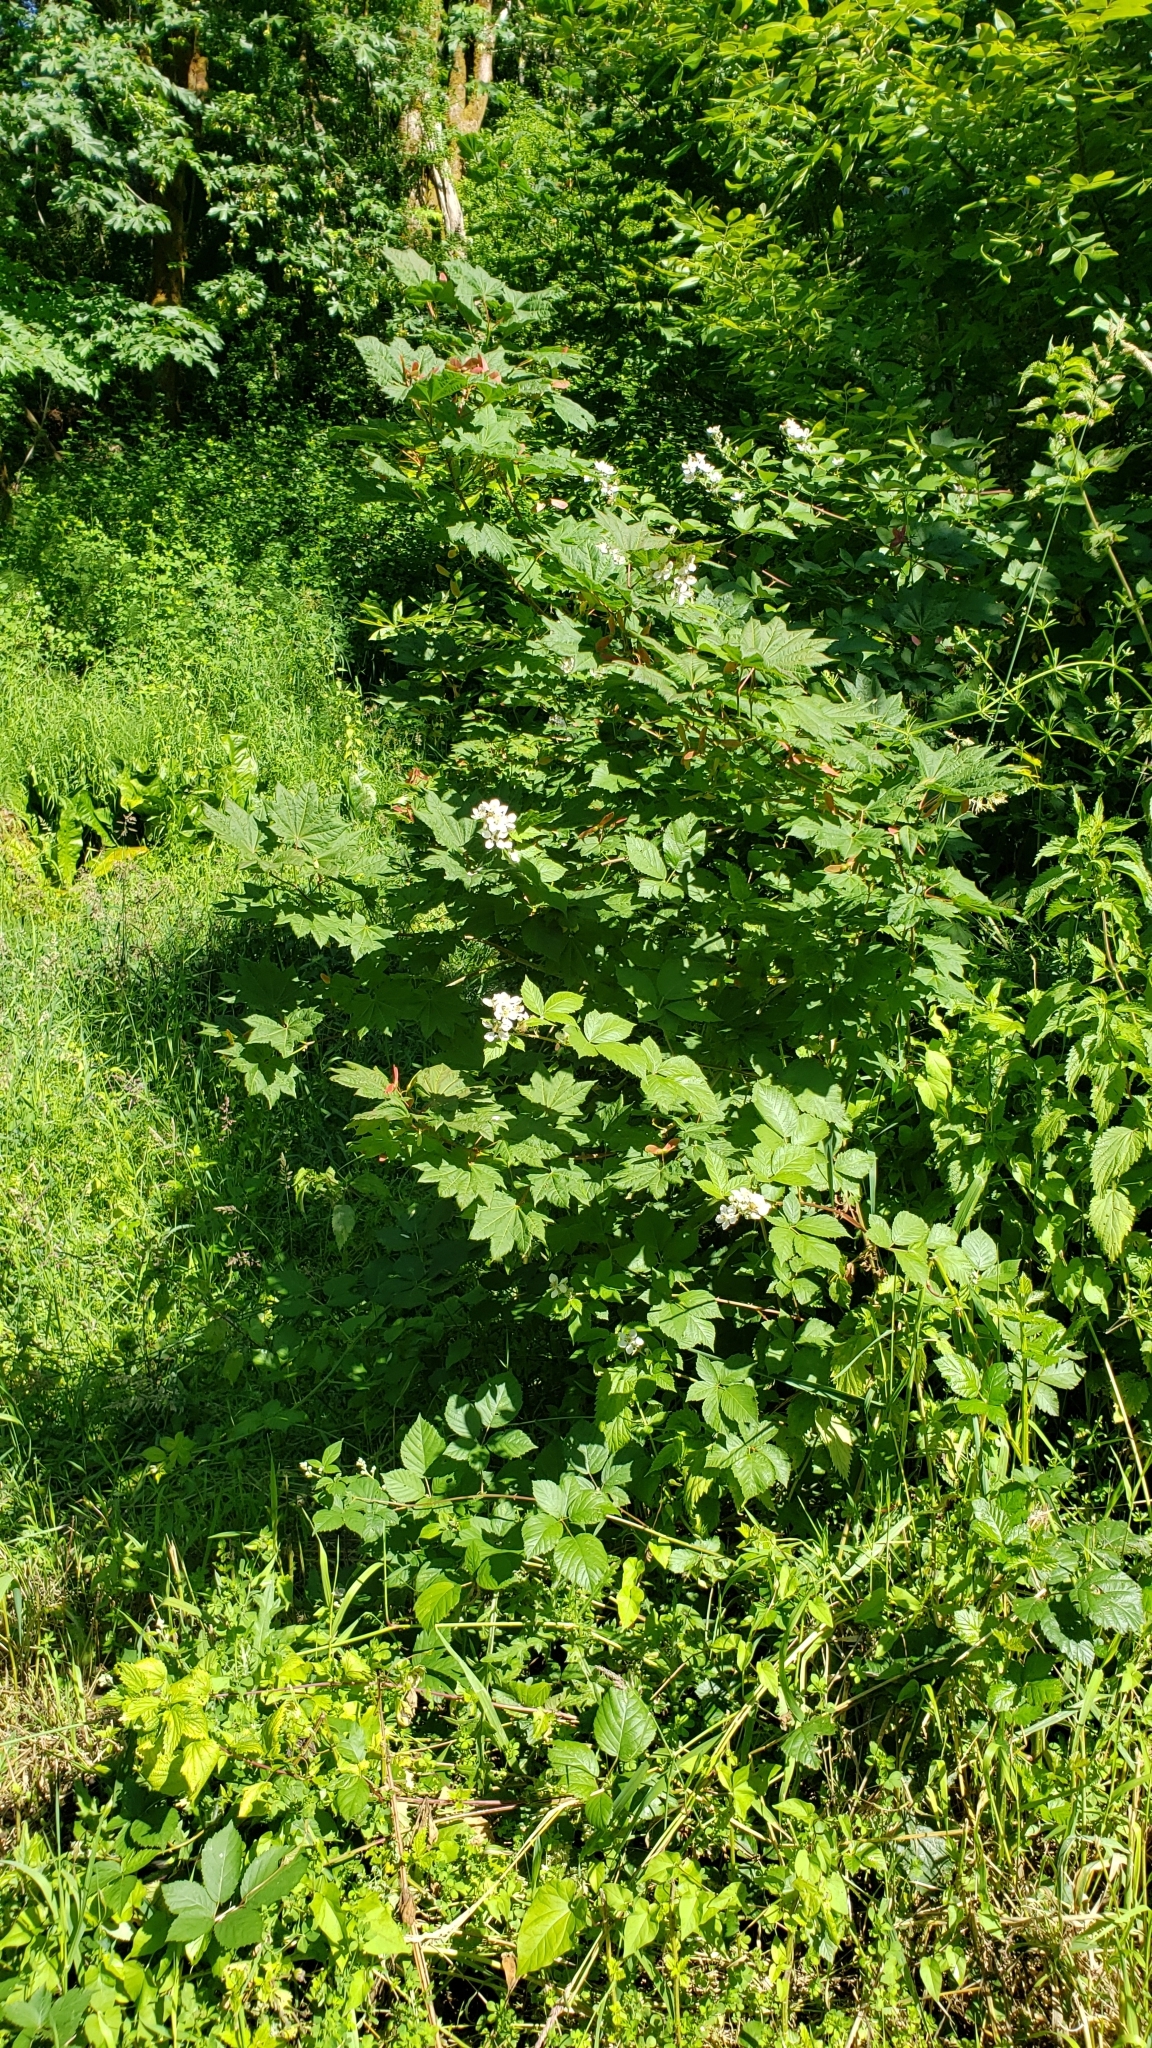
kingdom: Plantae
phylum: Tracheophyta
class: Magnoliopsida
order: Sapindales
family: Sapindaceae
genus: Acer
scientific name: Acer circinatum
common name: Vine maple
